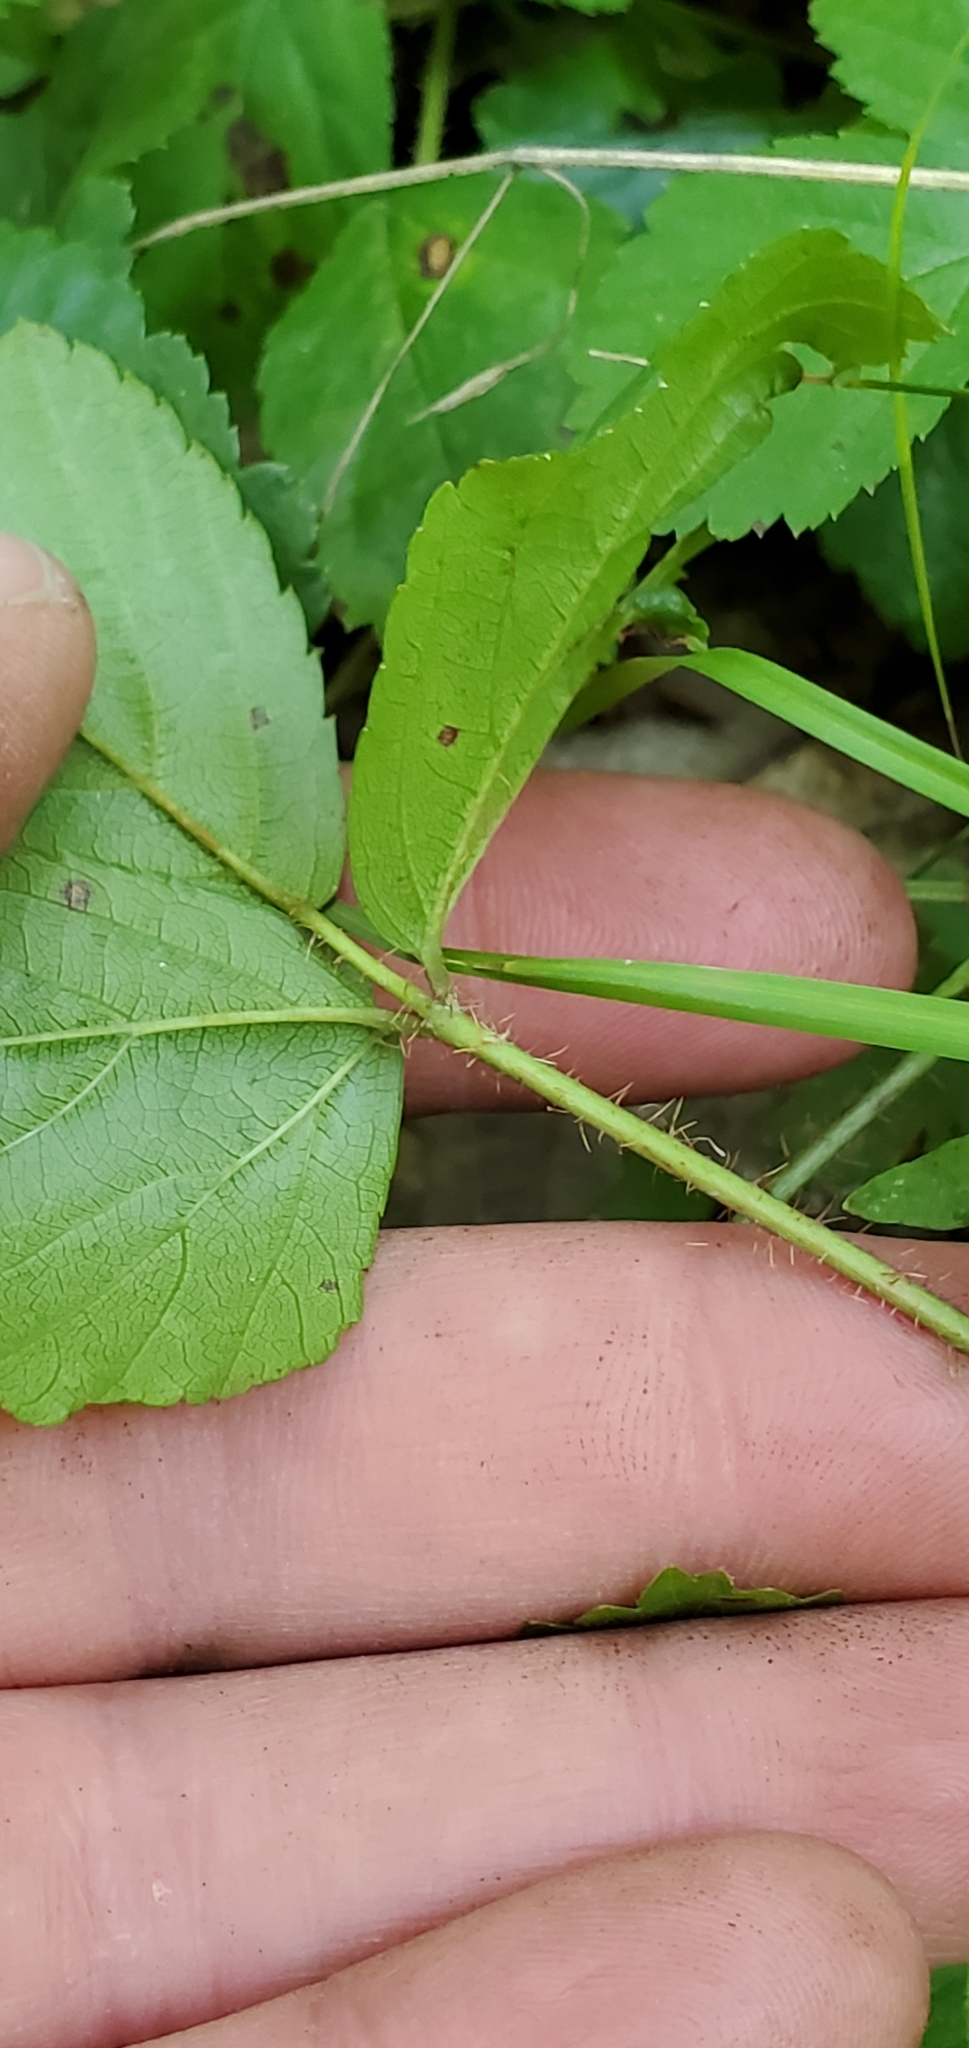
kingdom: Plantae
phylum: Tracheophyta
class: Magnoliopsida
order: Rosales
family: Rosaceae
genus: Rubus
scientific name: Rubus hispidus
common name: Running blackberry
